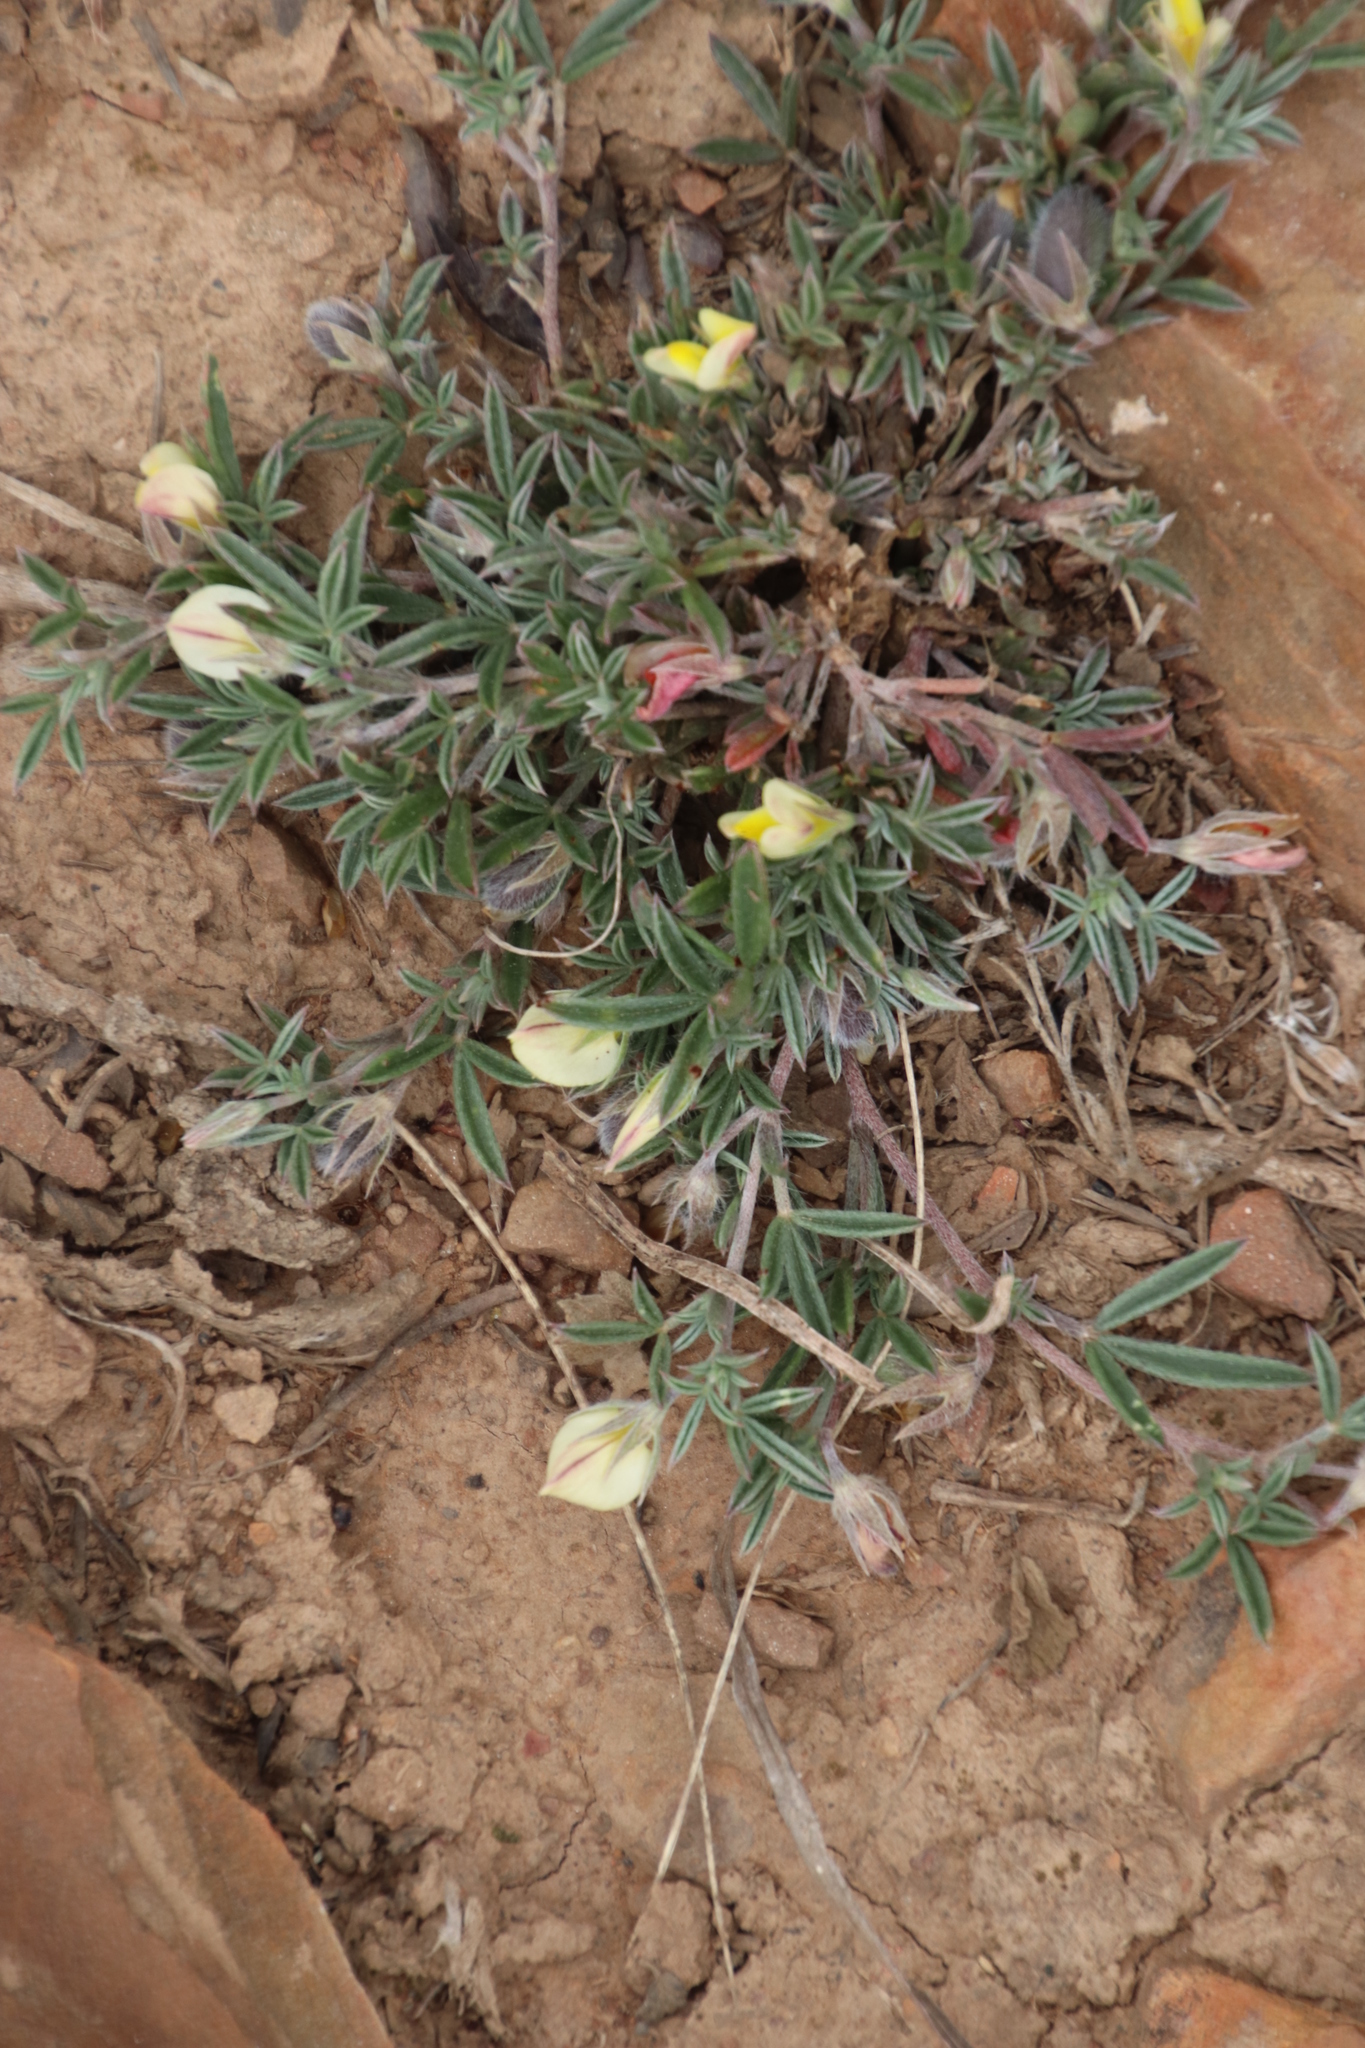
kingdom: Plantae
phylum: Tracheophyta
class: Magnoliopsida
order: Fabales
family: Fabaceae
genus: Lotononis
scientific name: Lotononis pungens
